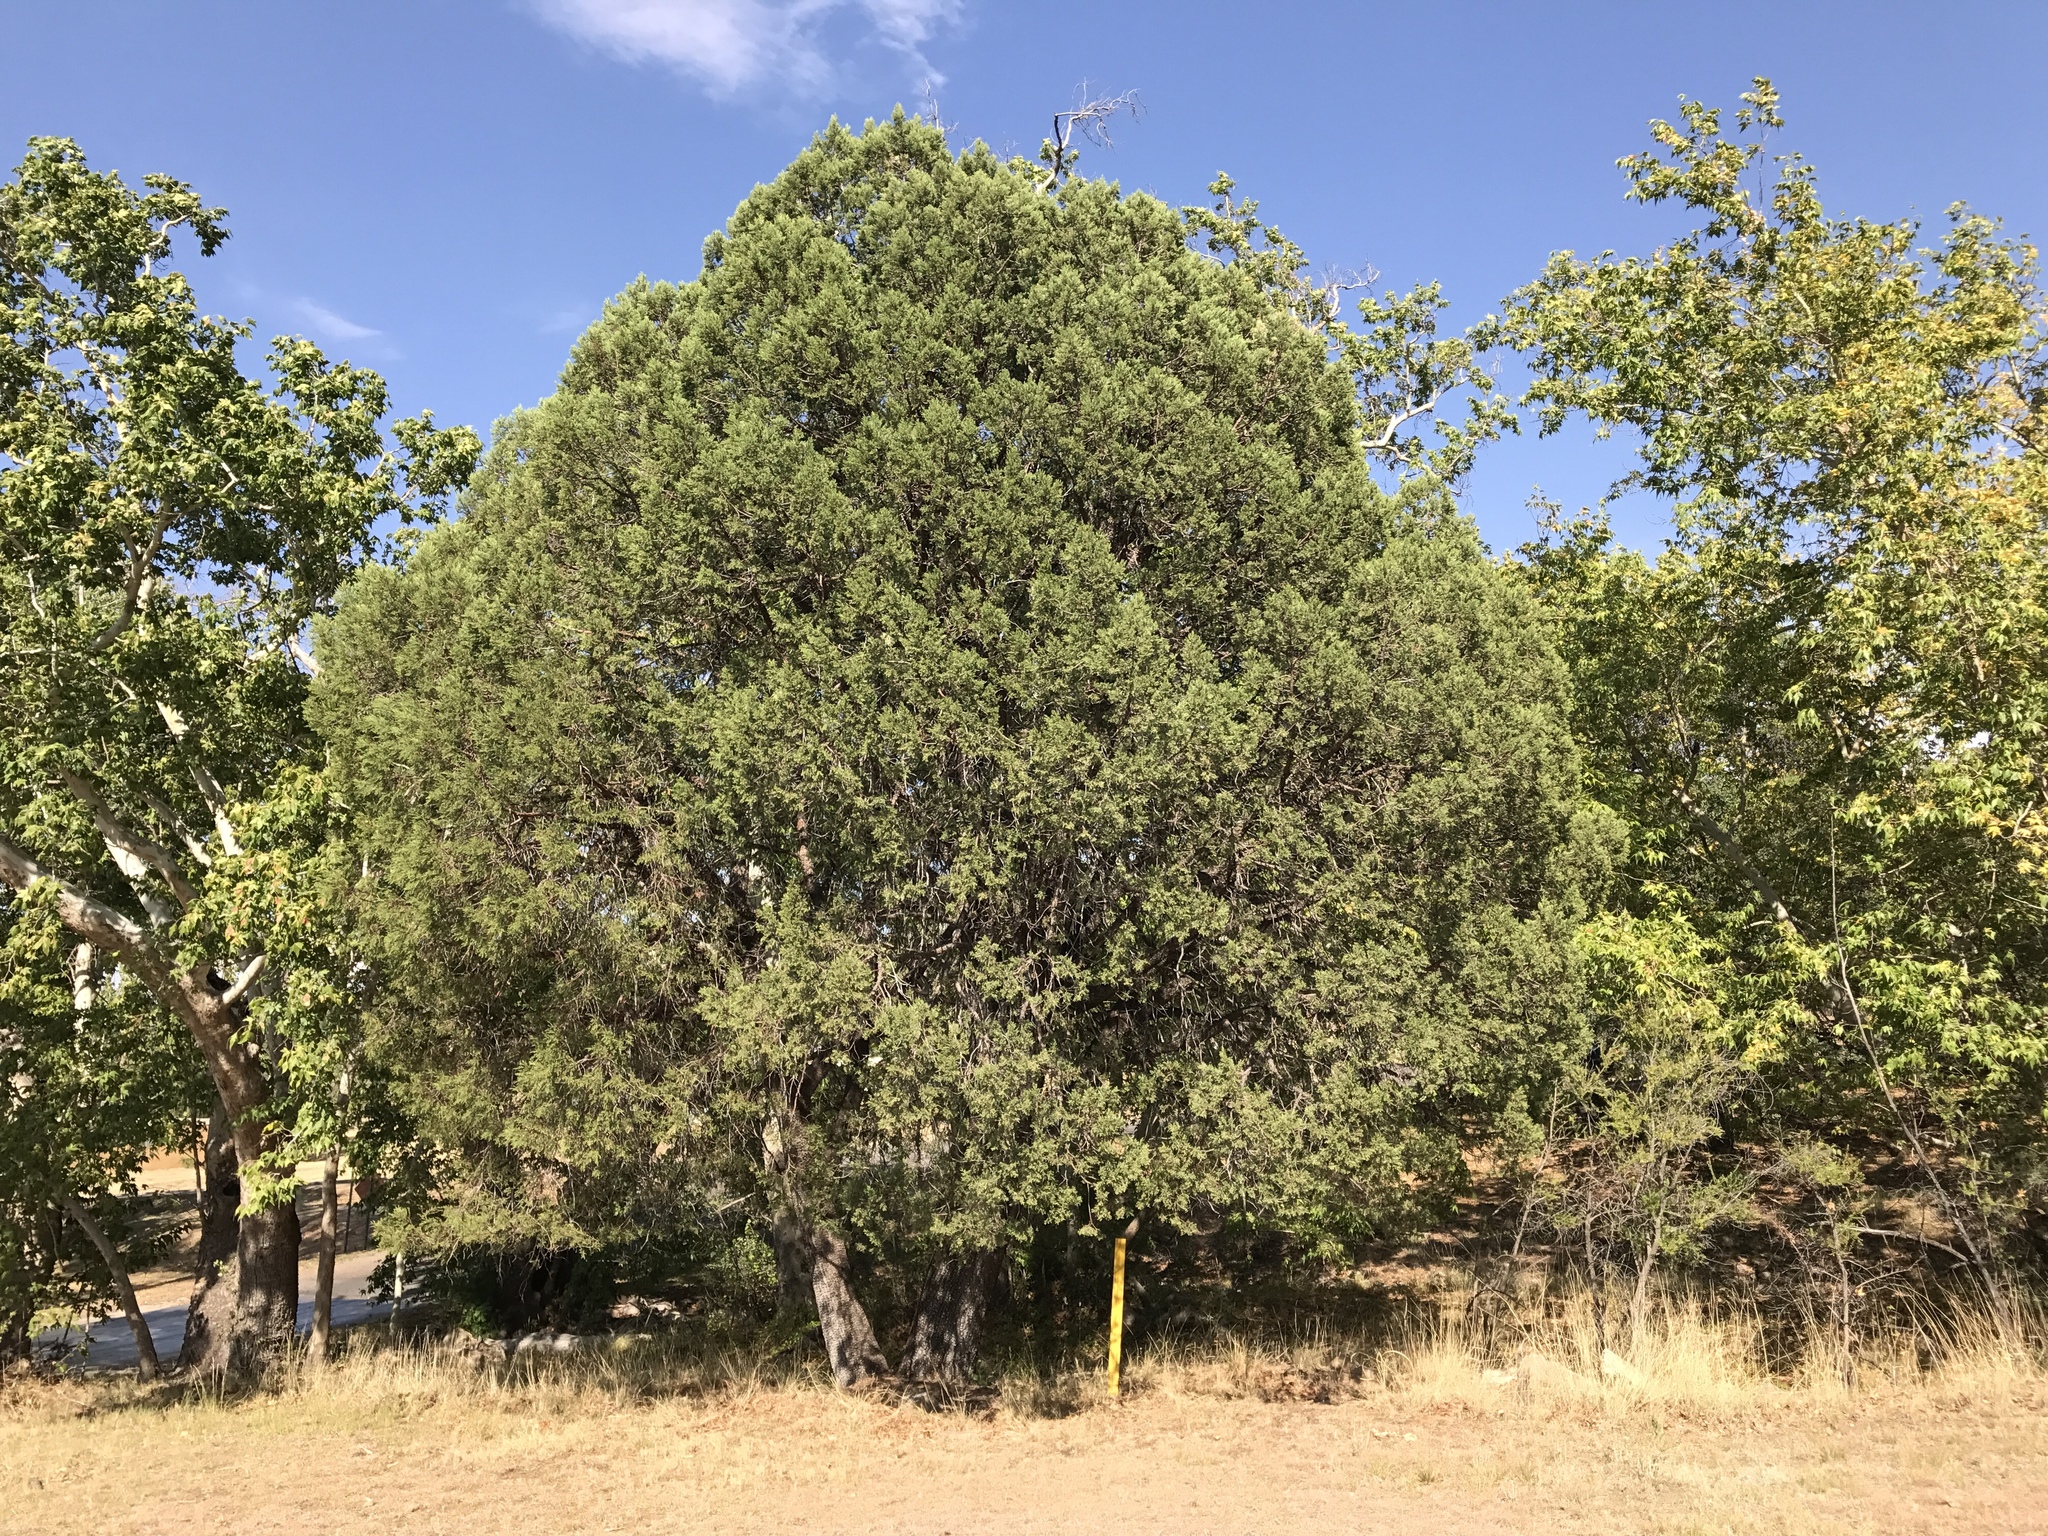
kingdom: Plantae
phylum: Tracheophyta
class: Pinopsida
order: Pinales
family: Cupressaceae
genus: Juniperus
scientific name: Juniperus deppeana
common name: Alligator juniper
